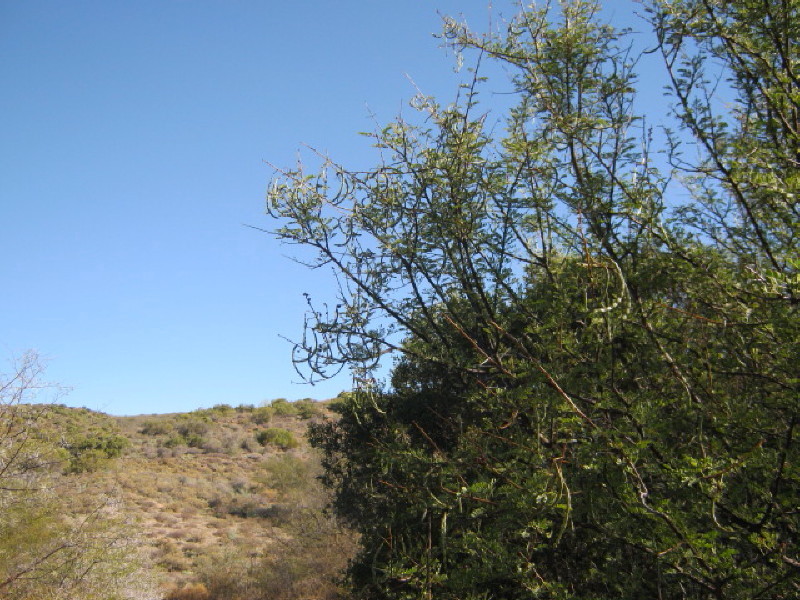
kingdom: Plantae
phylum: Tracheophyta
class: Magnoliopsida
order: Fabales
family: Fabaceae
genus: Vachellia
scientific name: Vachellia karroo
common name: Sweet thorn
